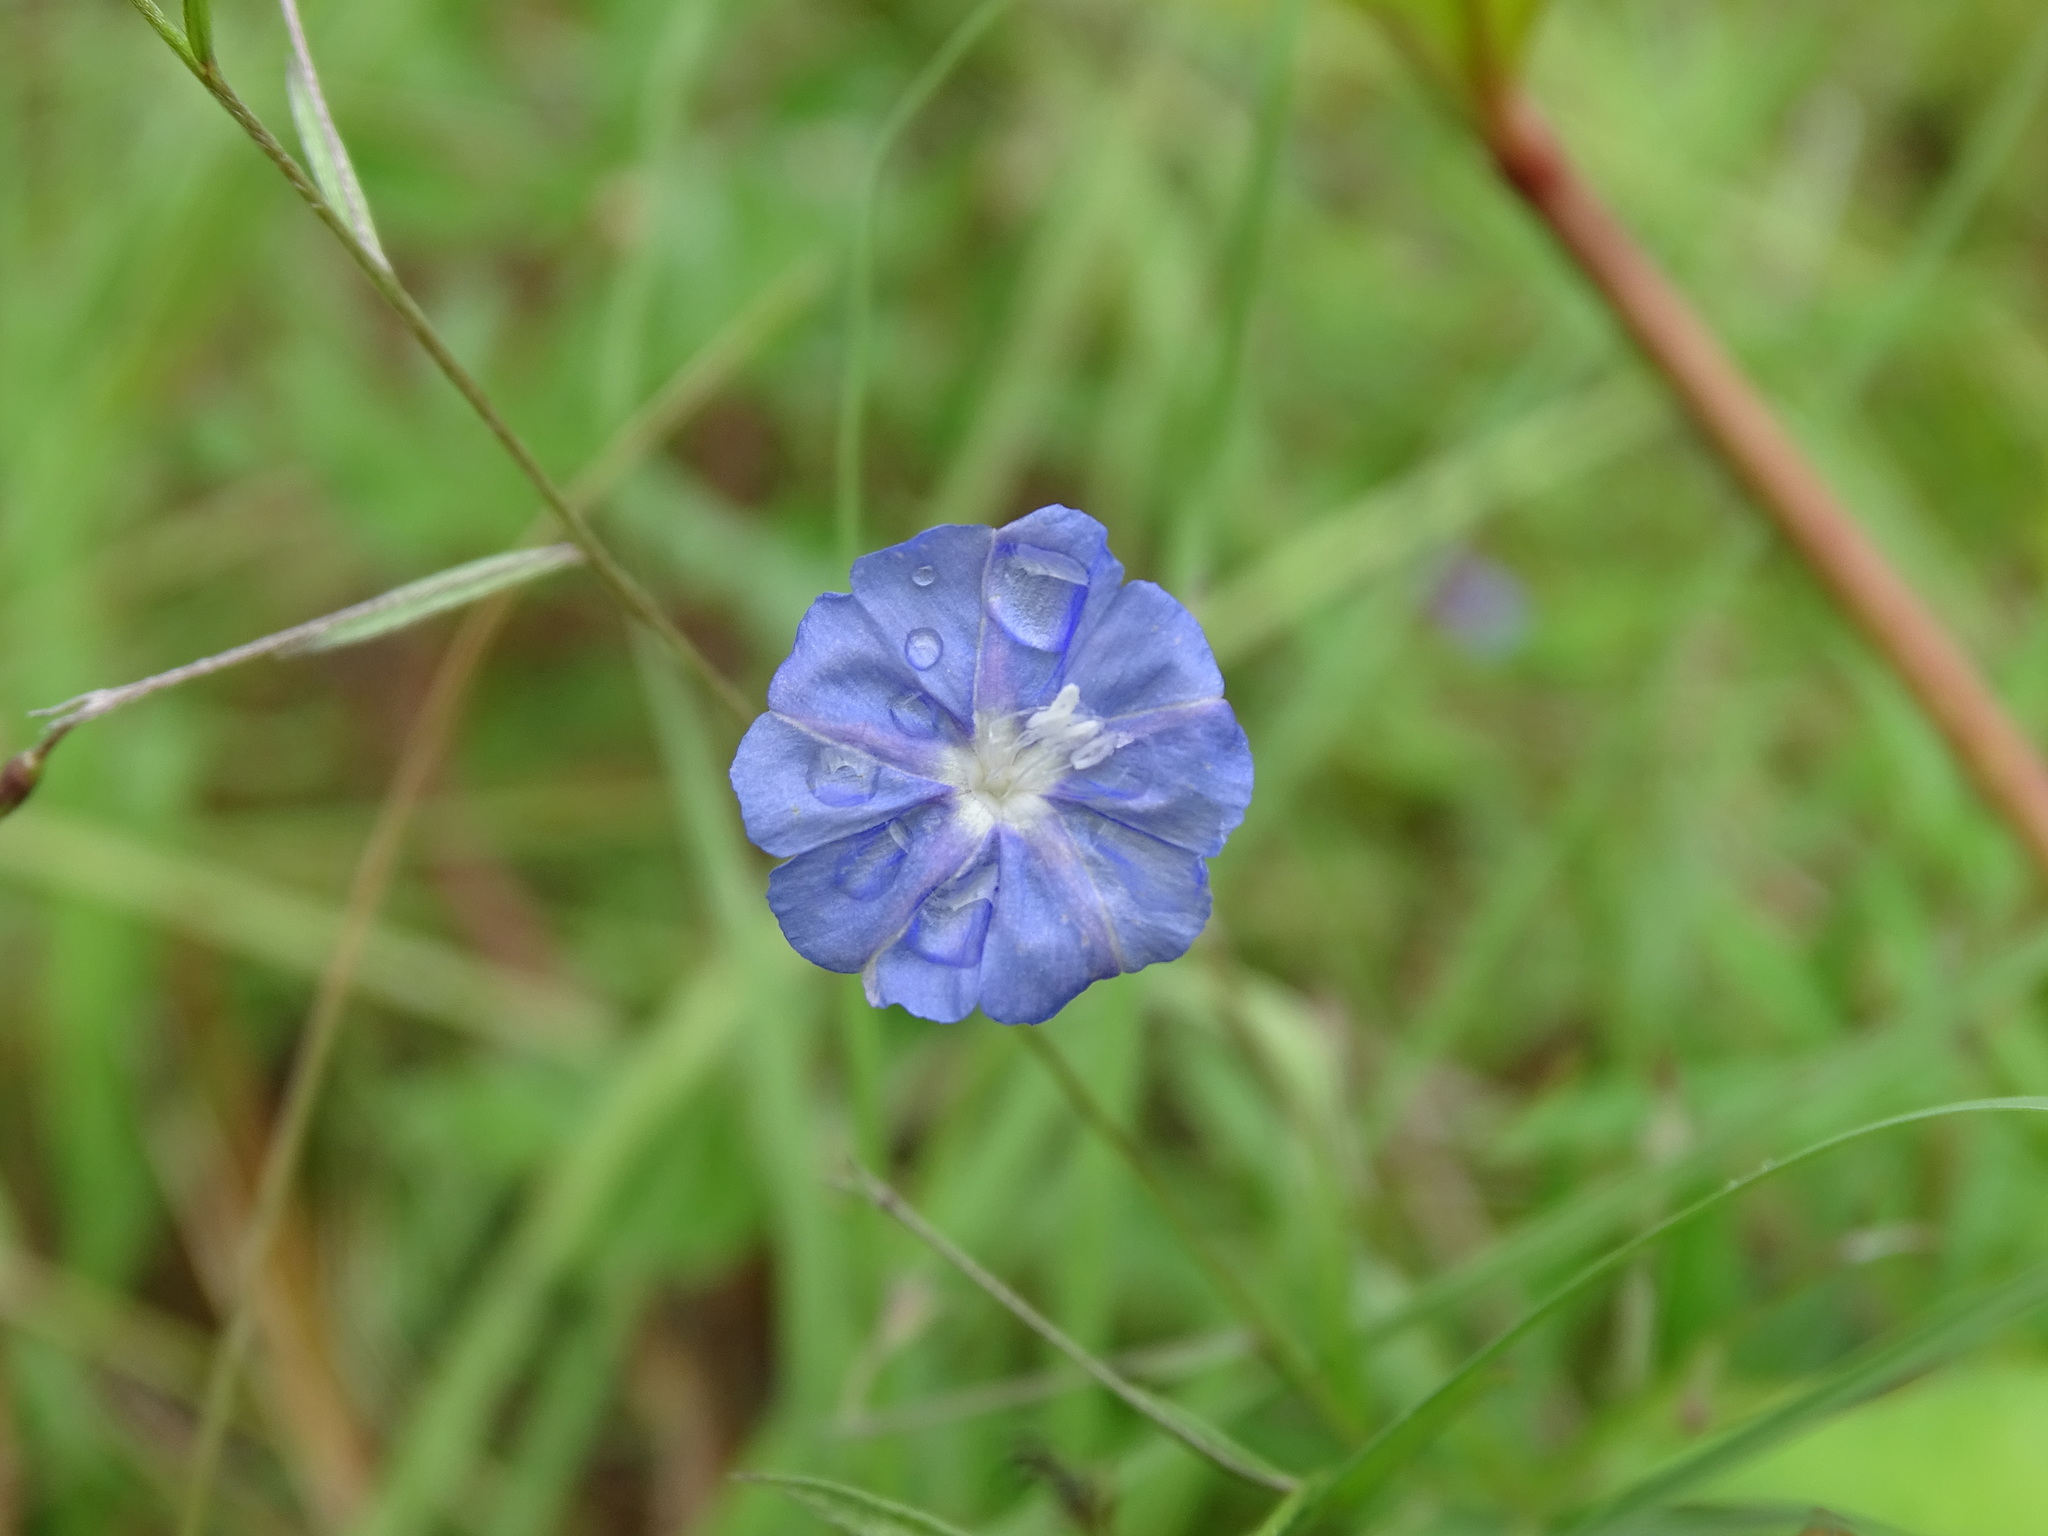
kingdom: Plantae
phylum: Tracheophyta
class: Magnoliopsida
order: Solanales
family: Convolvulaceae
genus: Evolvulus
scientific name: Evolvulus alsinoides
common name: Slender dwarf morning-glory
